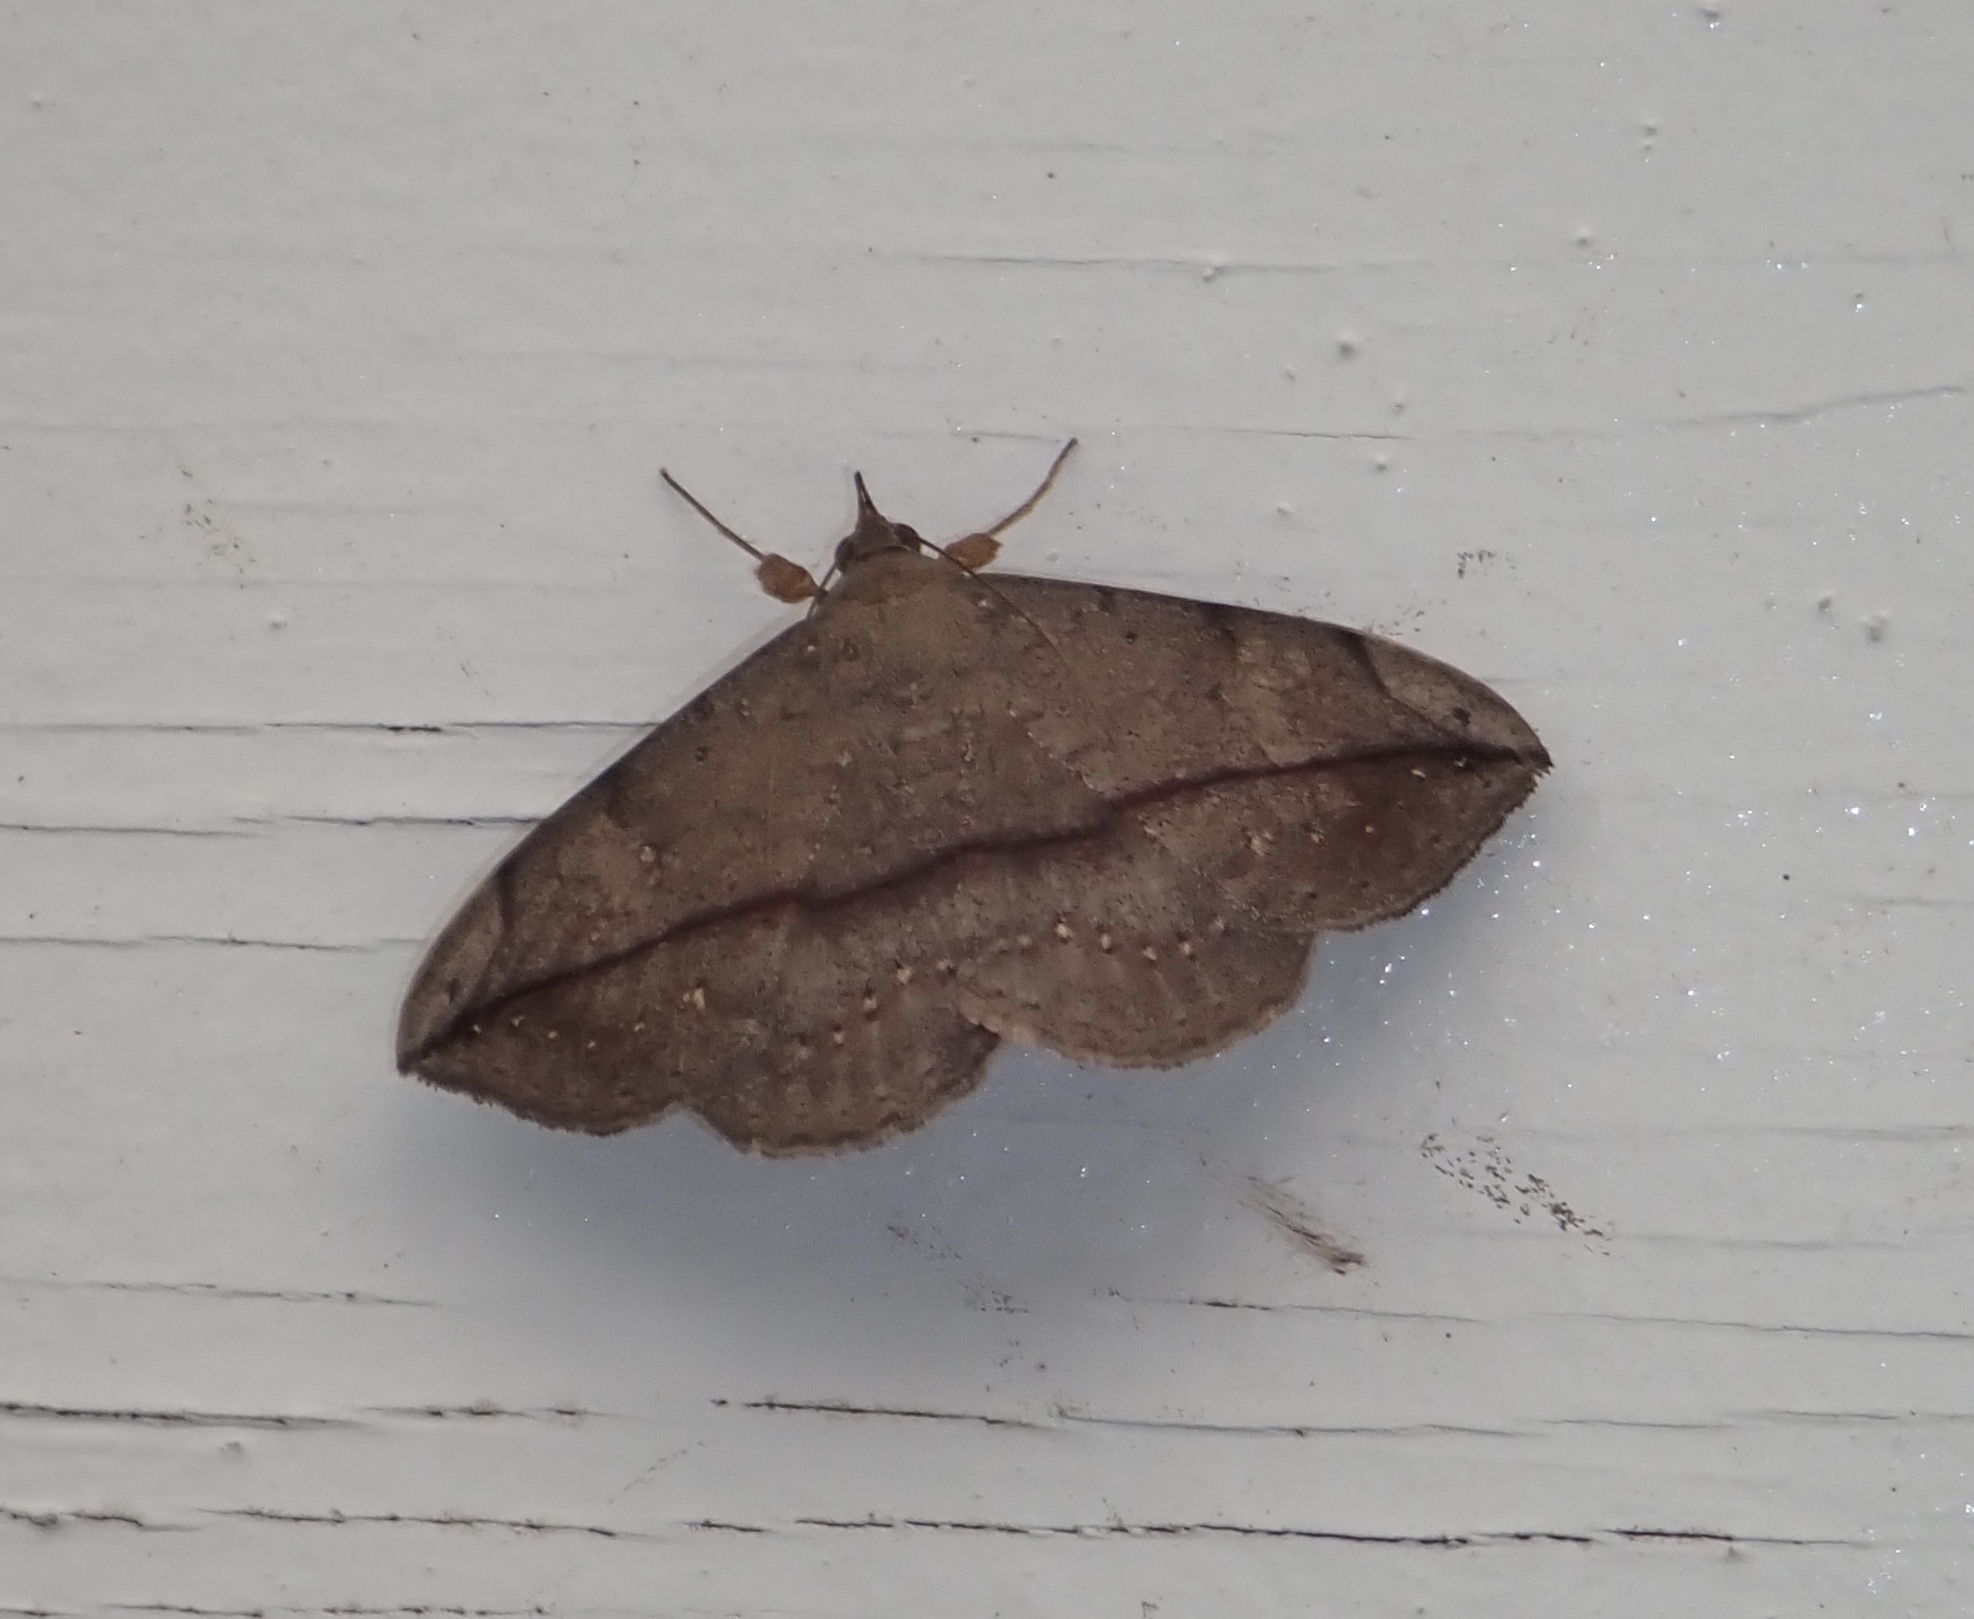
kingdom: Animalia
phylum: Arthropoda
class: Insecta
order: Lepidoptera
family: Erebidae
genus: Anticarsia
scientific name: Anticarsia gemmatalis
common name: Cutworm moth
